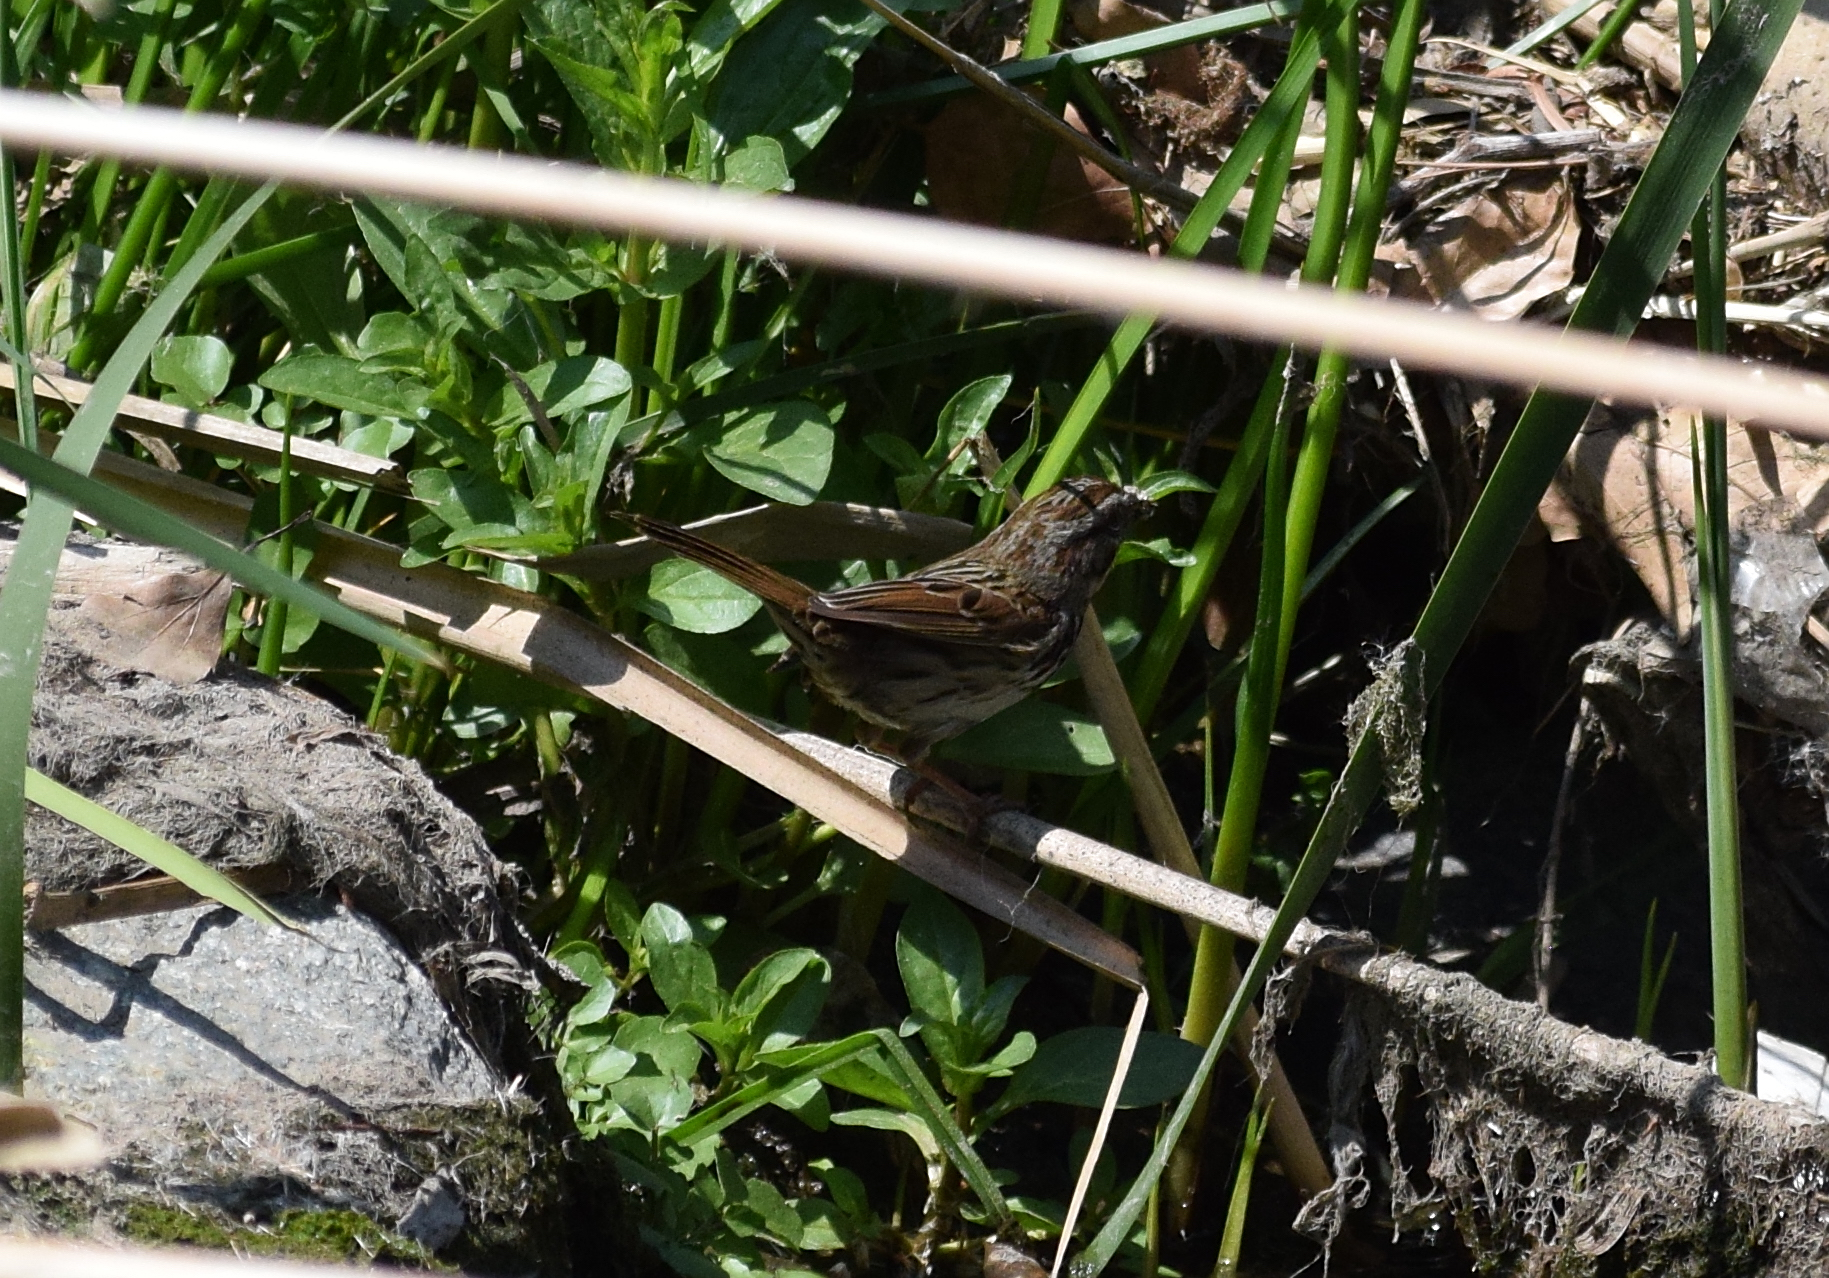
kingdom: Animalia
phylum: Chordata
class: Aves
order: Passeriformes
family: Passerellidae
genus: Melospiza
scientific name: Melospiza melodia
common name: Song sparrow
